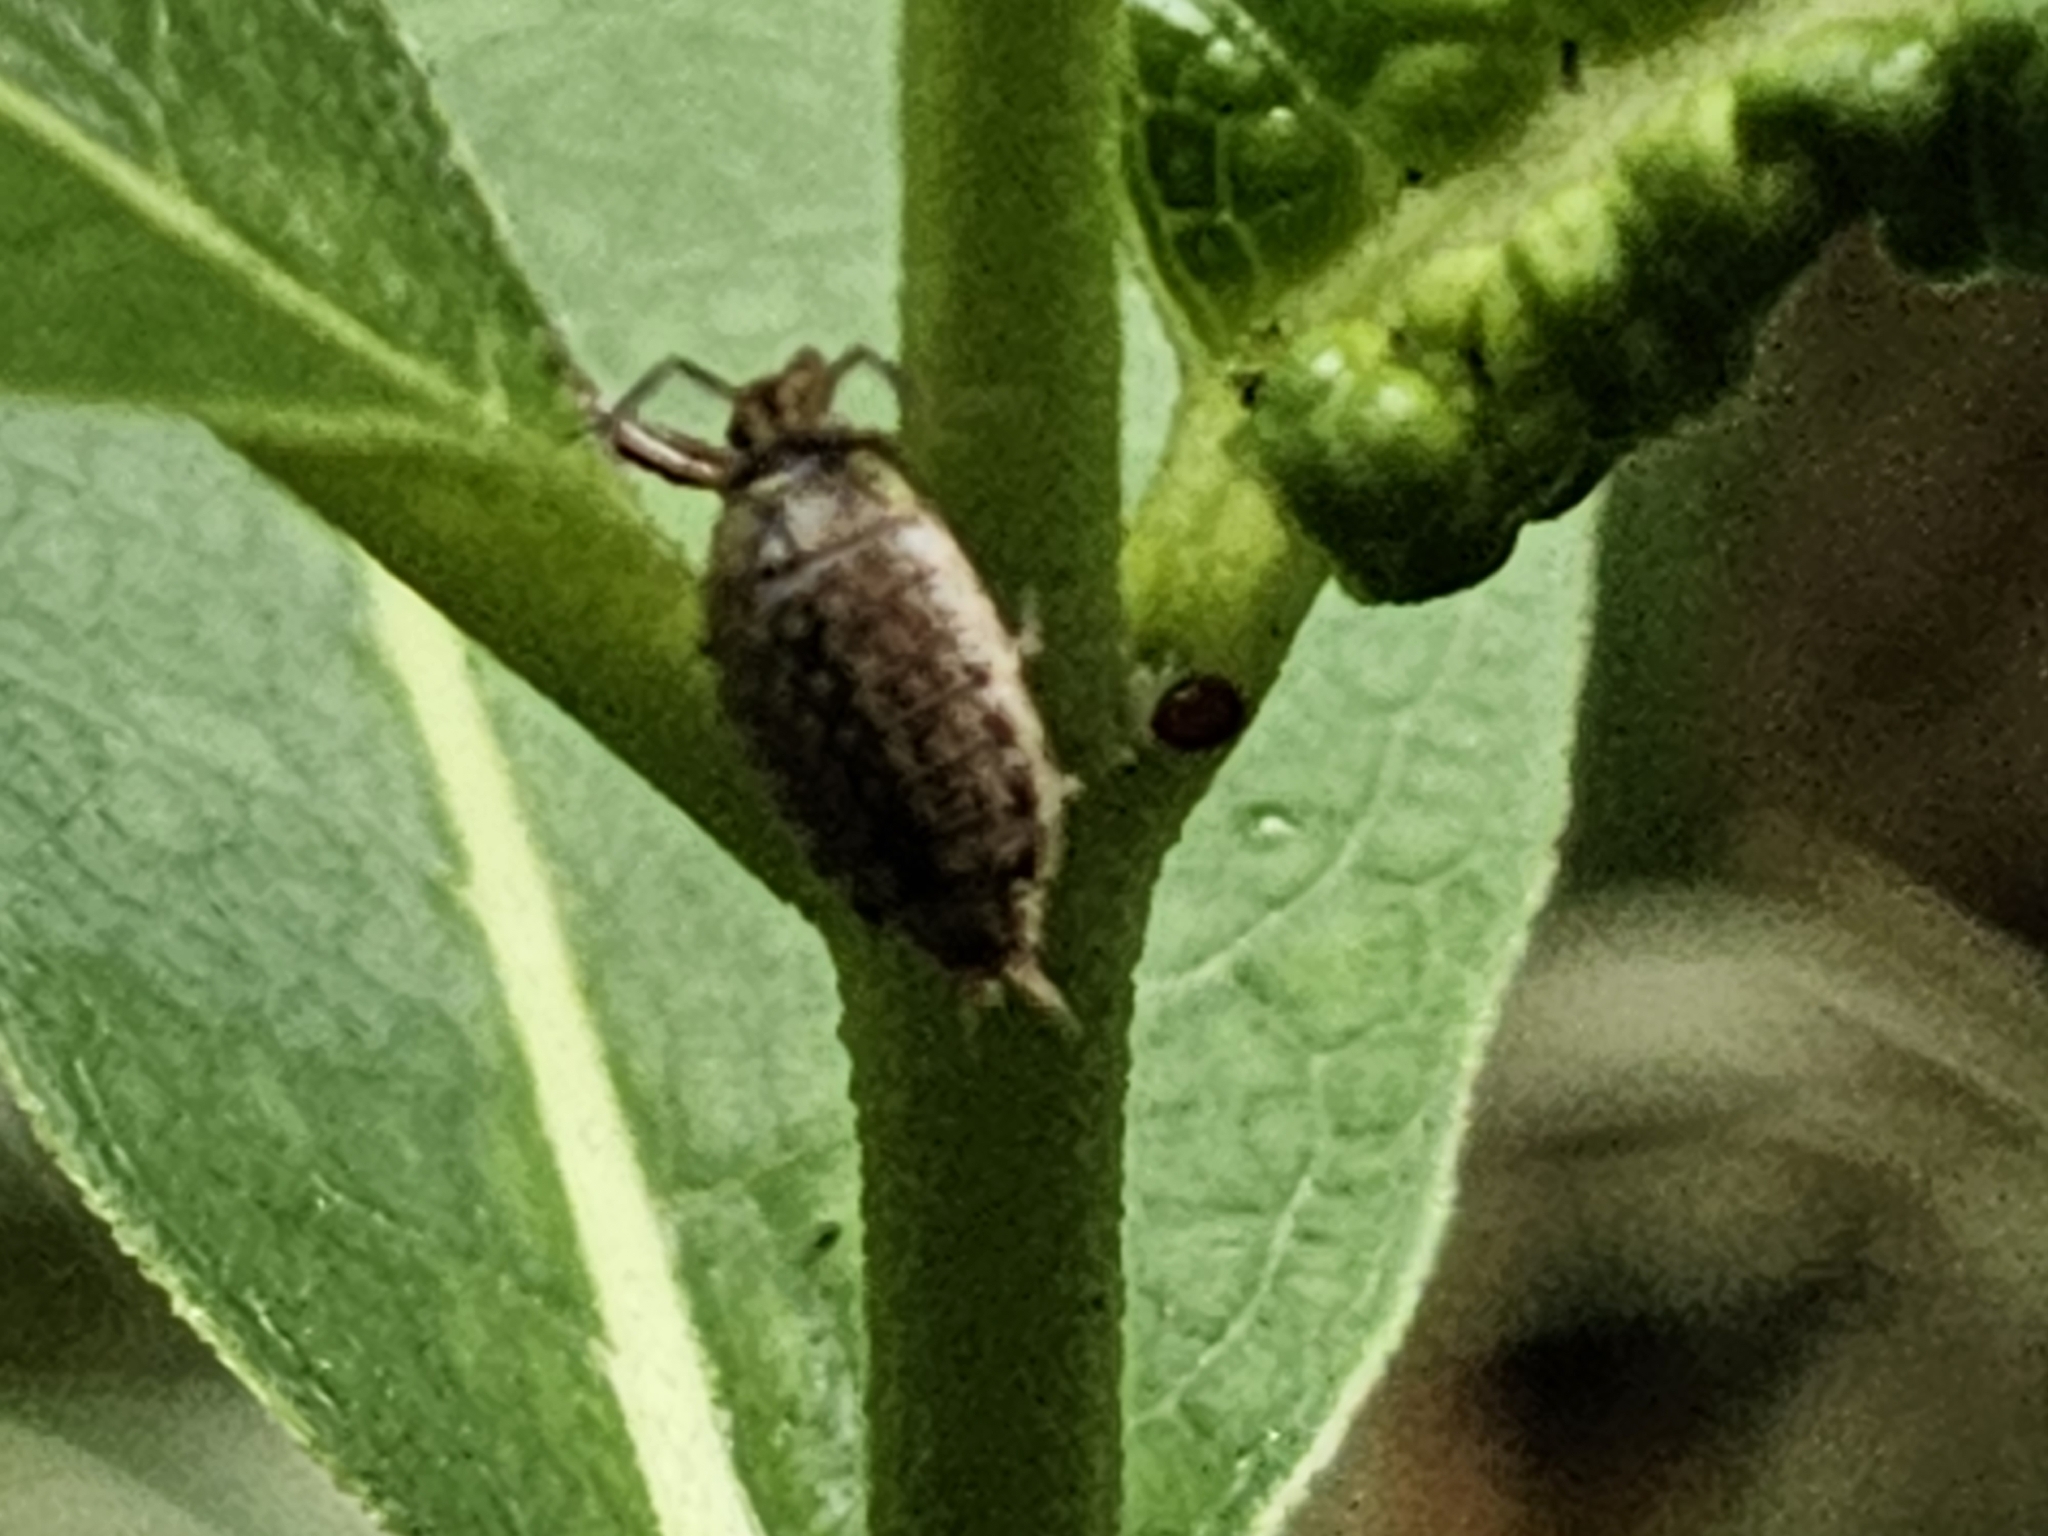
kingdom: Animalia
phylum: Arthropoda
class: Malacostraca
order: Isopoda
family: Philosciidae
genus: Philoscia
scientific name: Philoscia muscorum
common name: Common striped woodlouse
